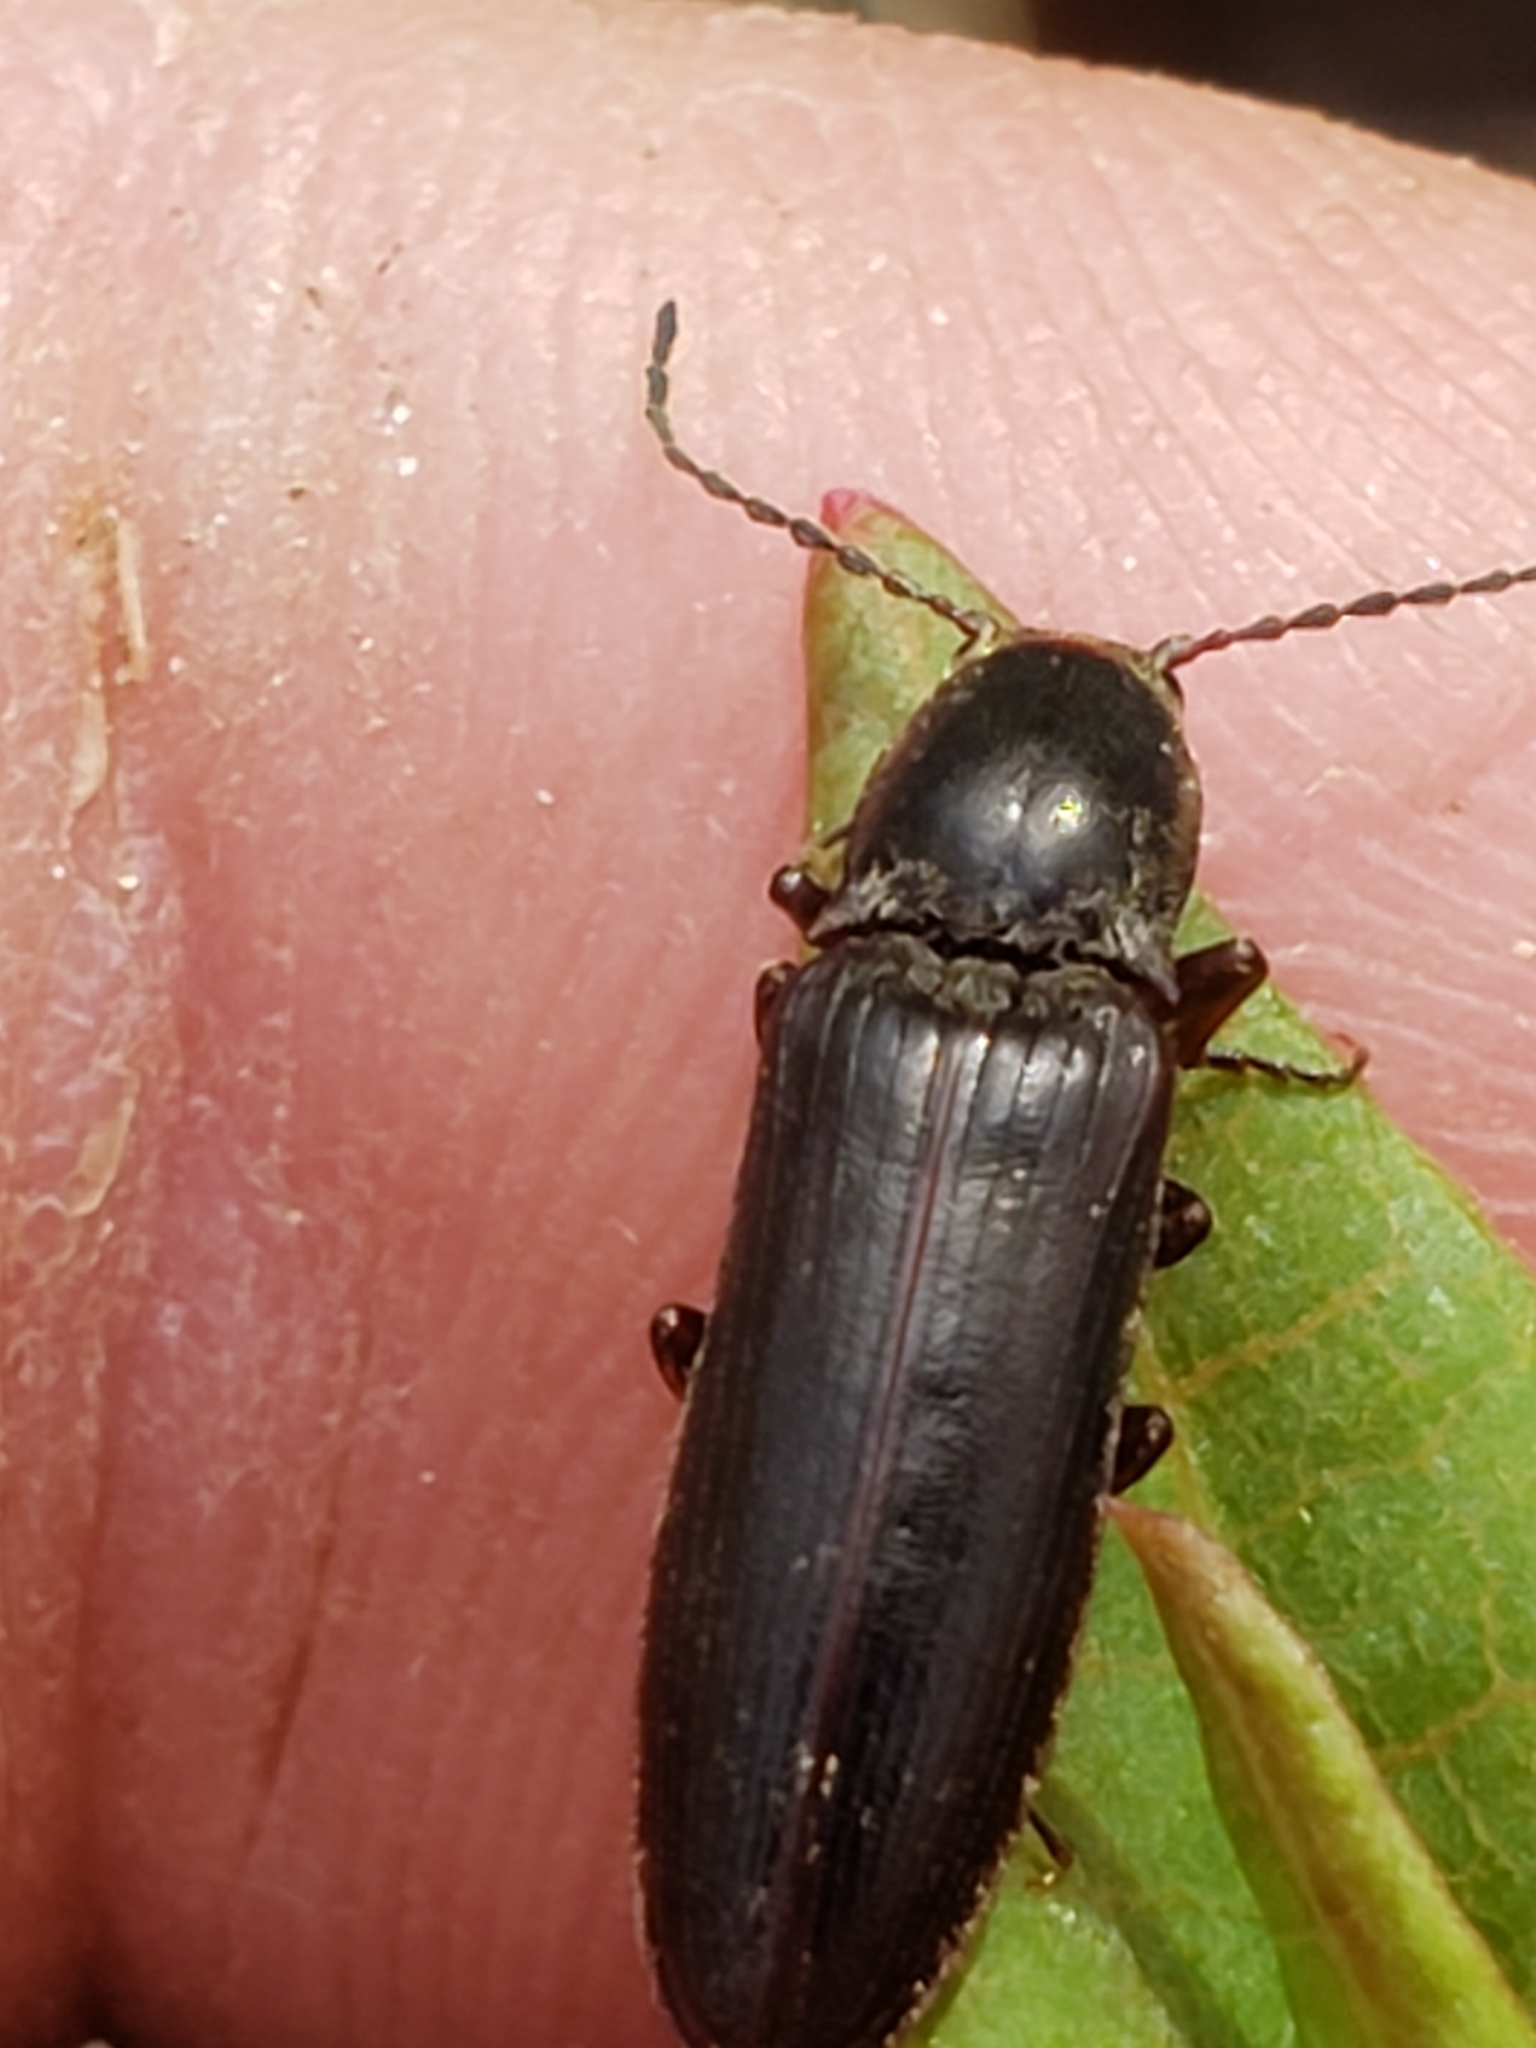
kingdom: Animalia
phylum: Arthropoda
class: Insecta
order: Coleoptera
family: Elateridae
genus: Sylvanelater
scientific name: Sylvanelater cylindriformis
